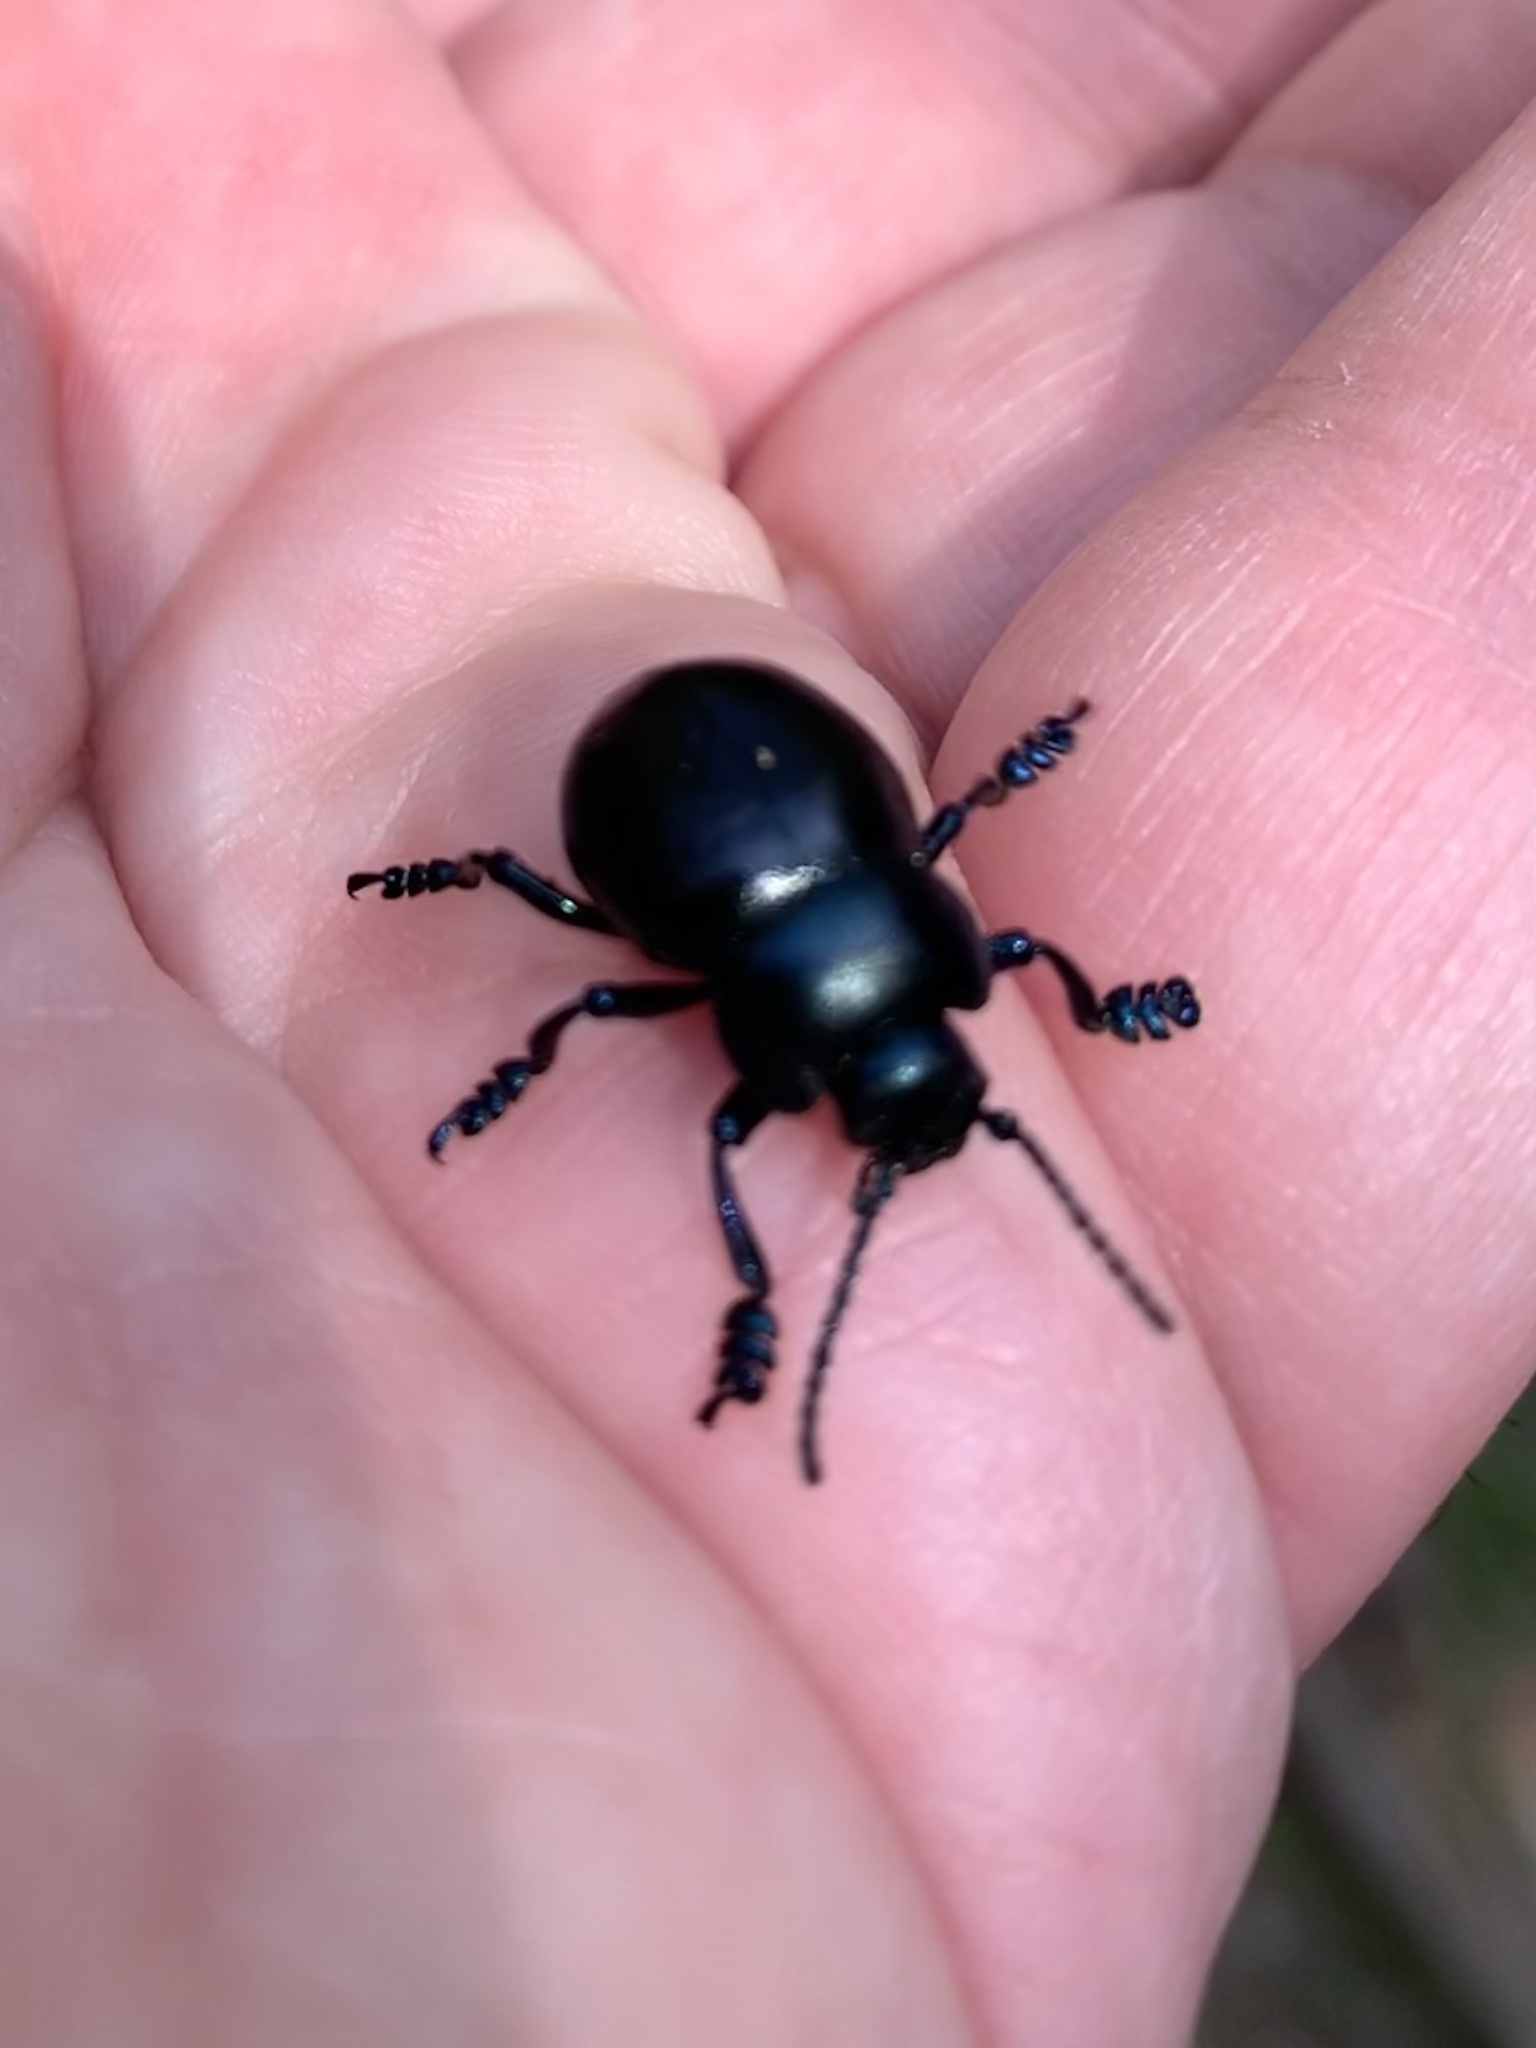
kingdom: Animalia
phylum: Arthropoda
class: Insecta
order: Coleoptera
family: Chrysomelidae
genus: Timarcha
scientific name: Timarcha nicaeensis
